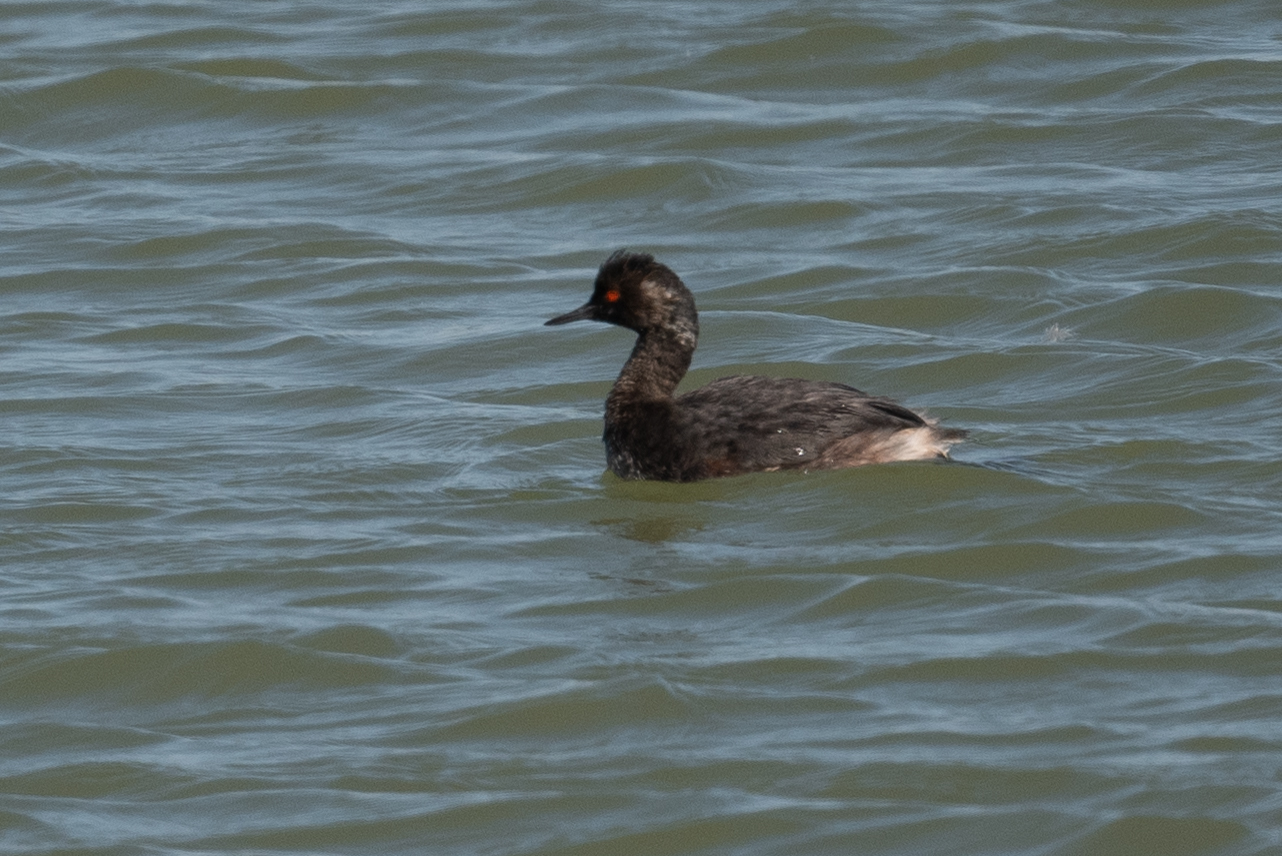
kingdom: Animalia
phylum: Chordata
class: Aves
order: Podicipediformes
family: Podicipedidae
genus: Podiceps
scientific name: Podiceps nigricollis
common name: Black-necked grebe
